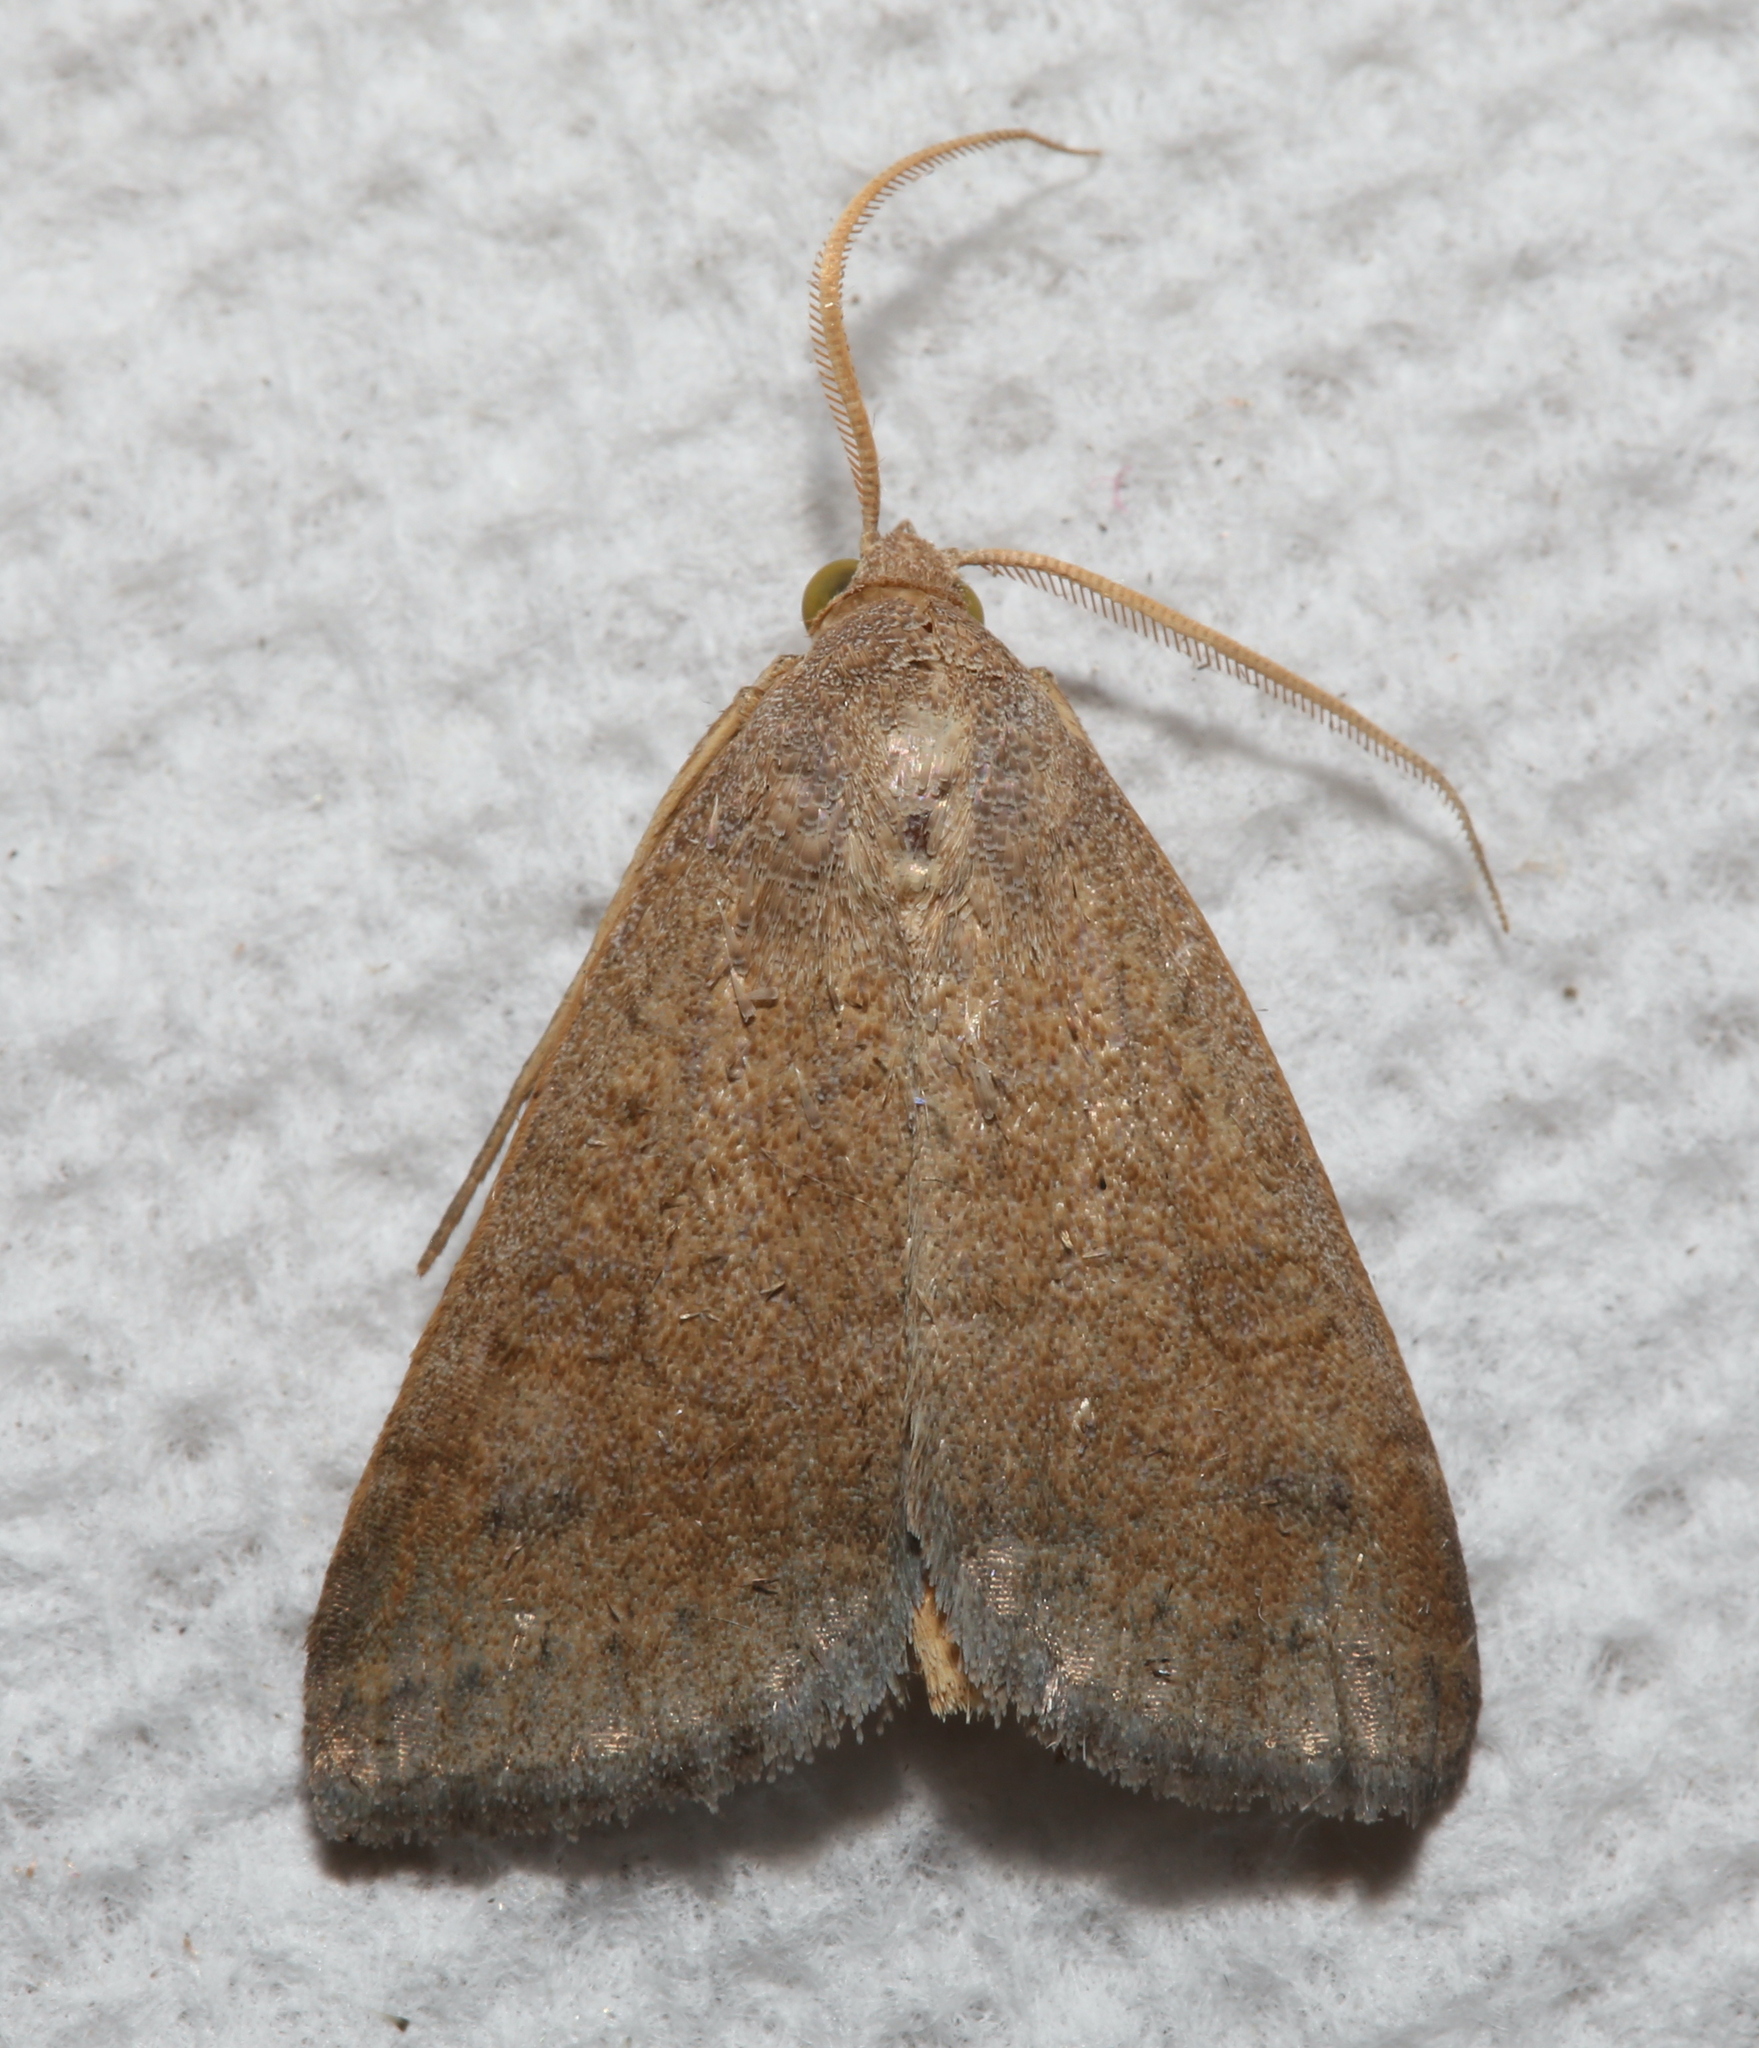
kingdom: Animalia
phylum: Arthropoda
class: Insecta
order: Lepidoptera
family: Erebidae
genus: Caenurgia
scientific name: Caenurgia chloropha
